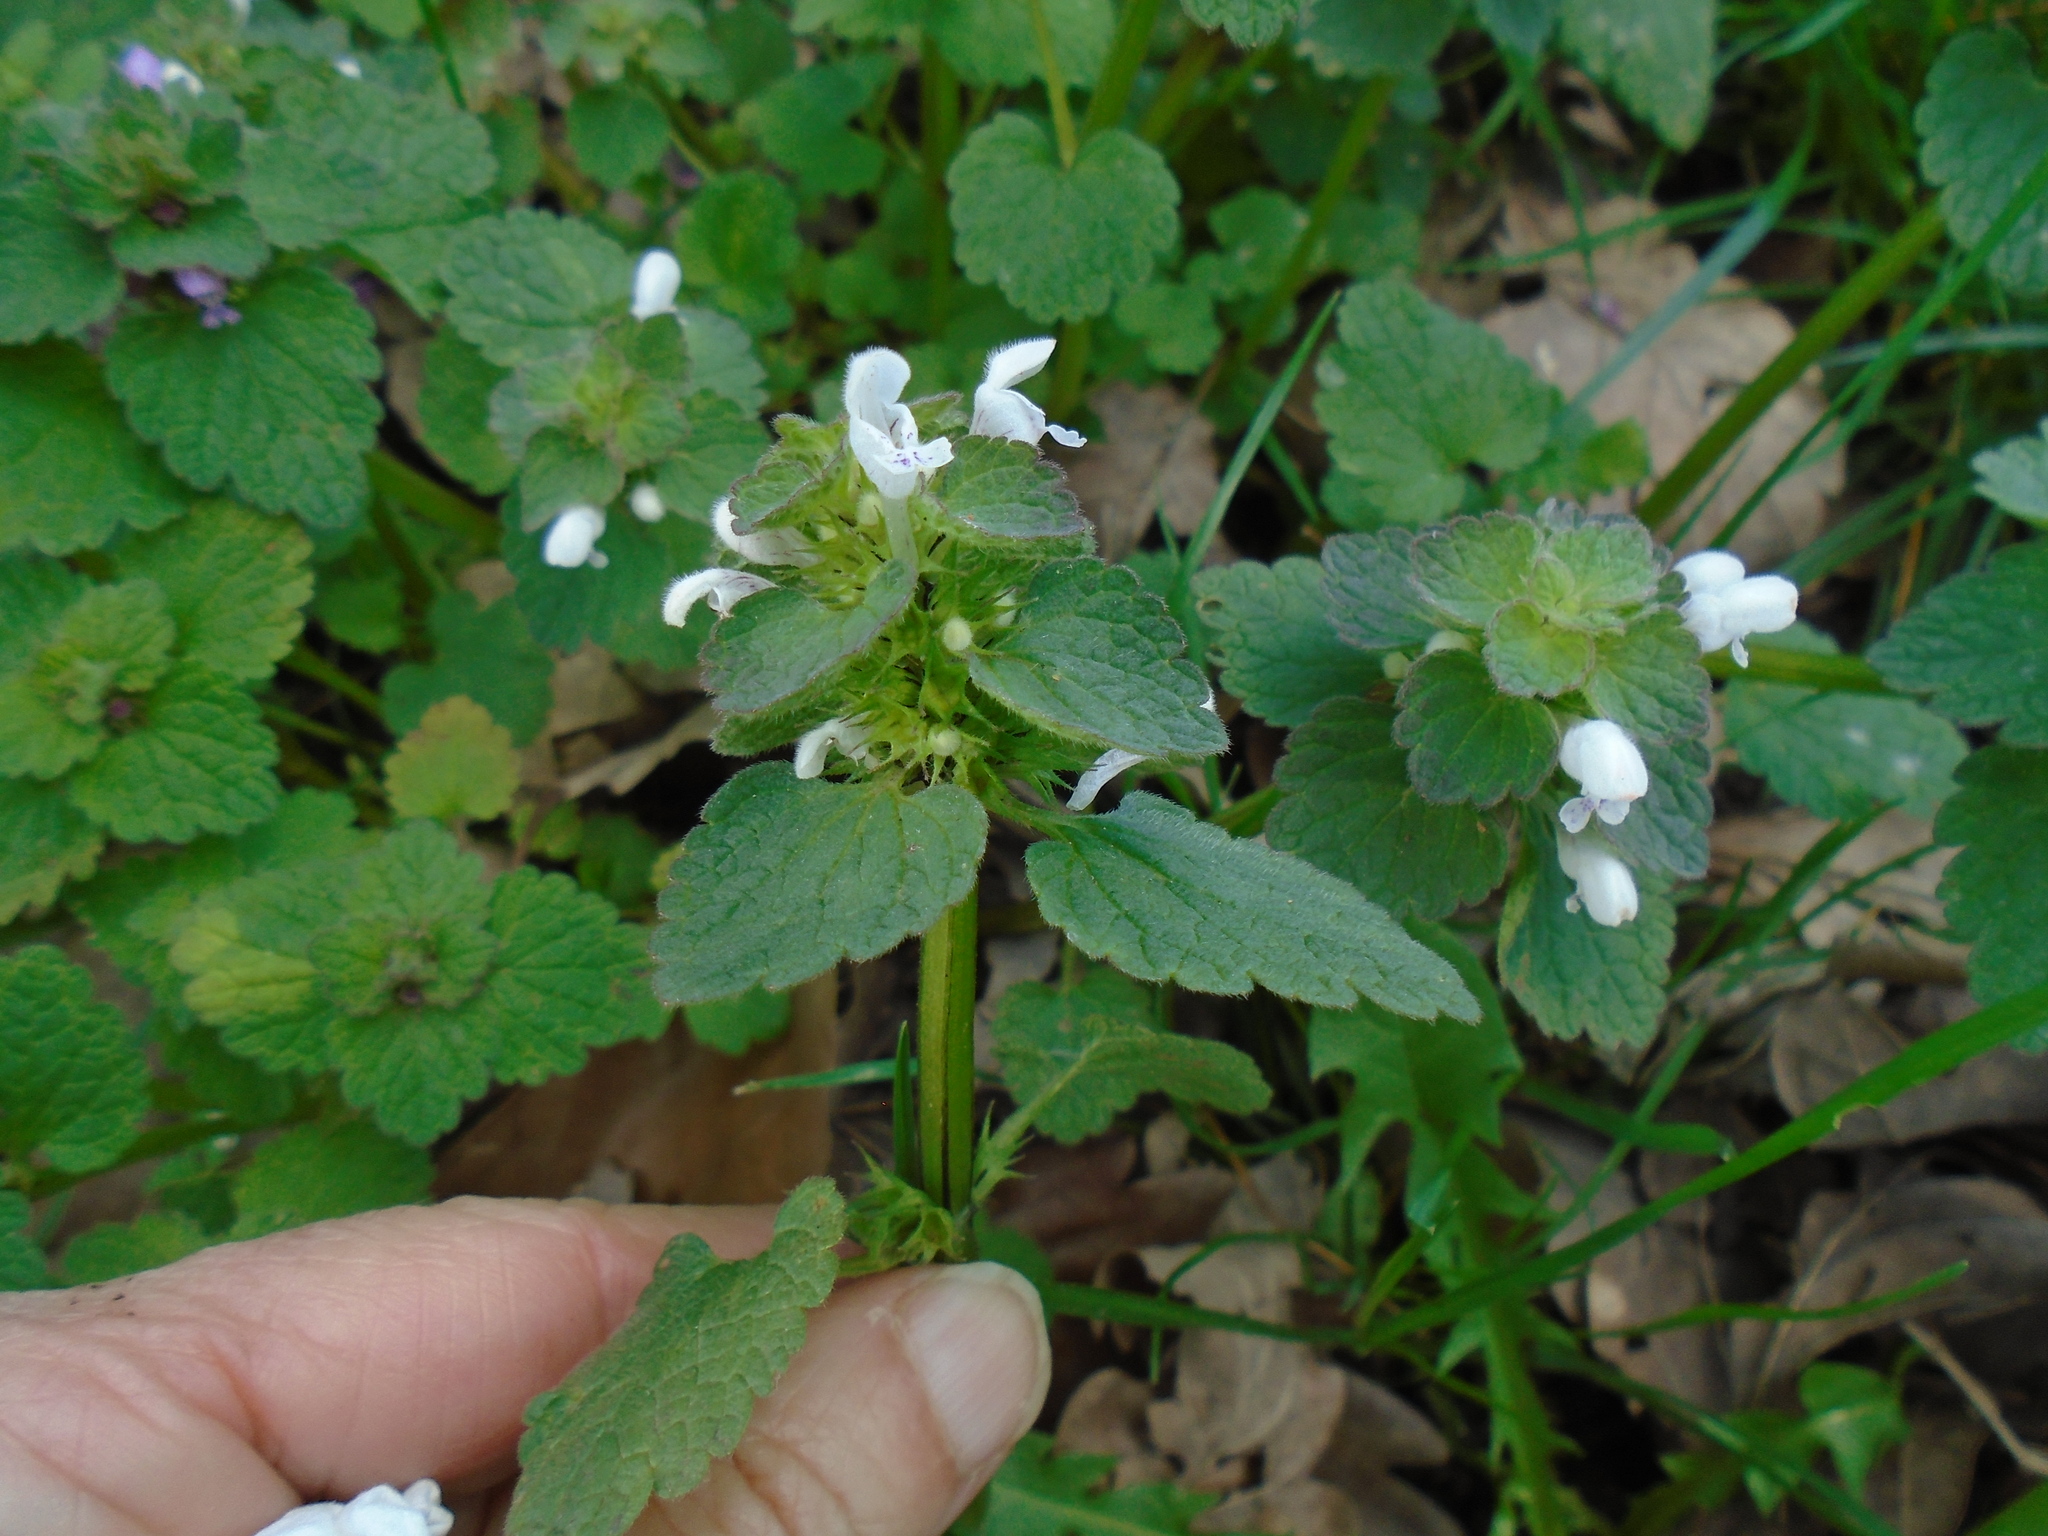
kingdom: Plantae
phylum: Tracheophyta
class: Magnoliopsida
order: Lamiales
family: Lamiaceae
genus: Lamium
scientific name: Lamium purpureum
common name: Red dead-nettle
